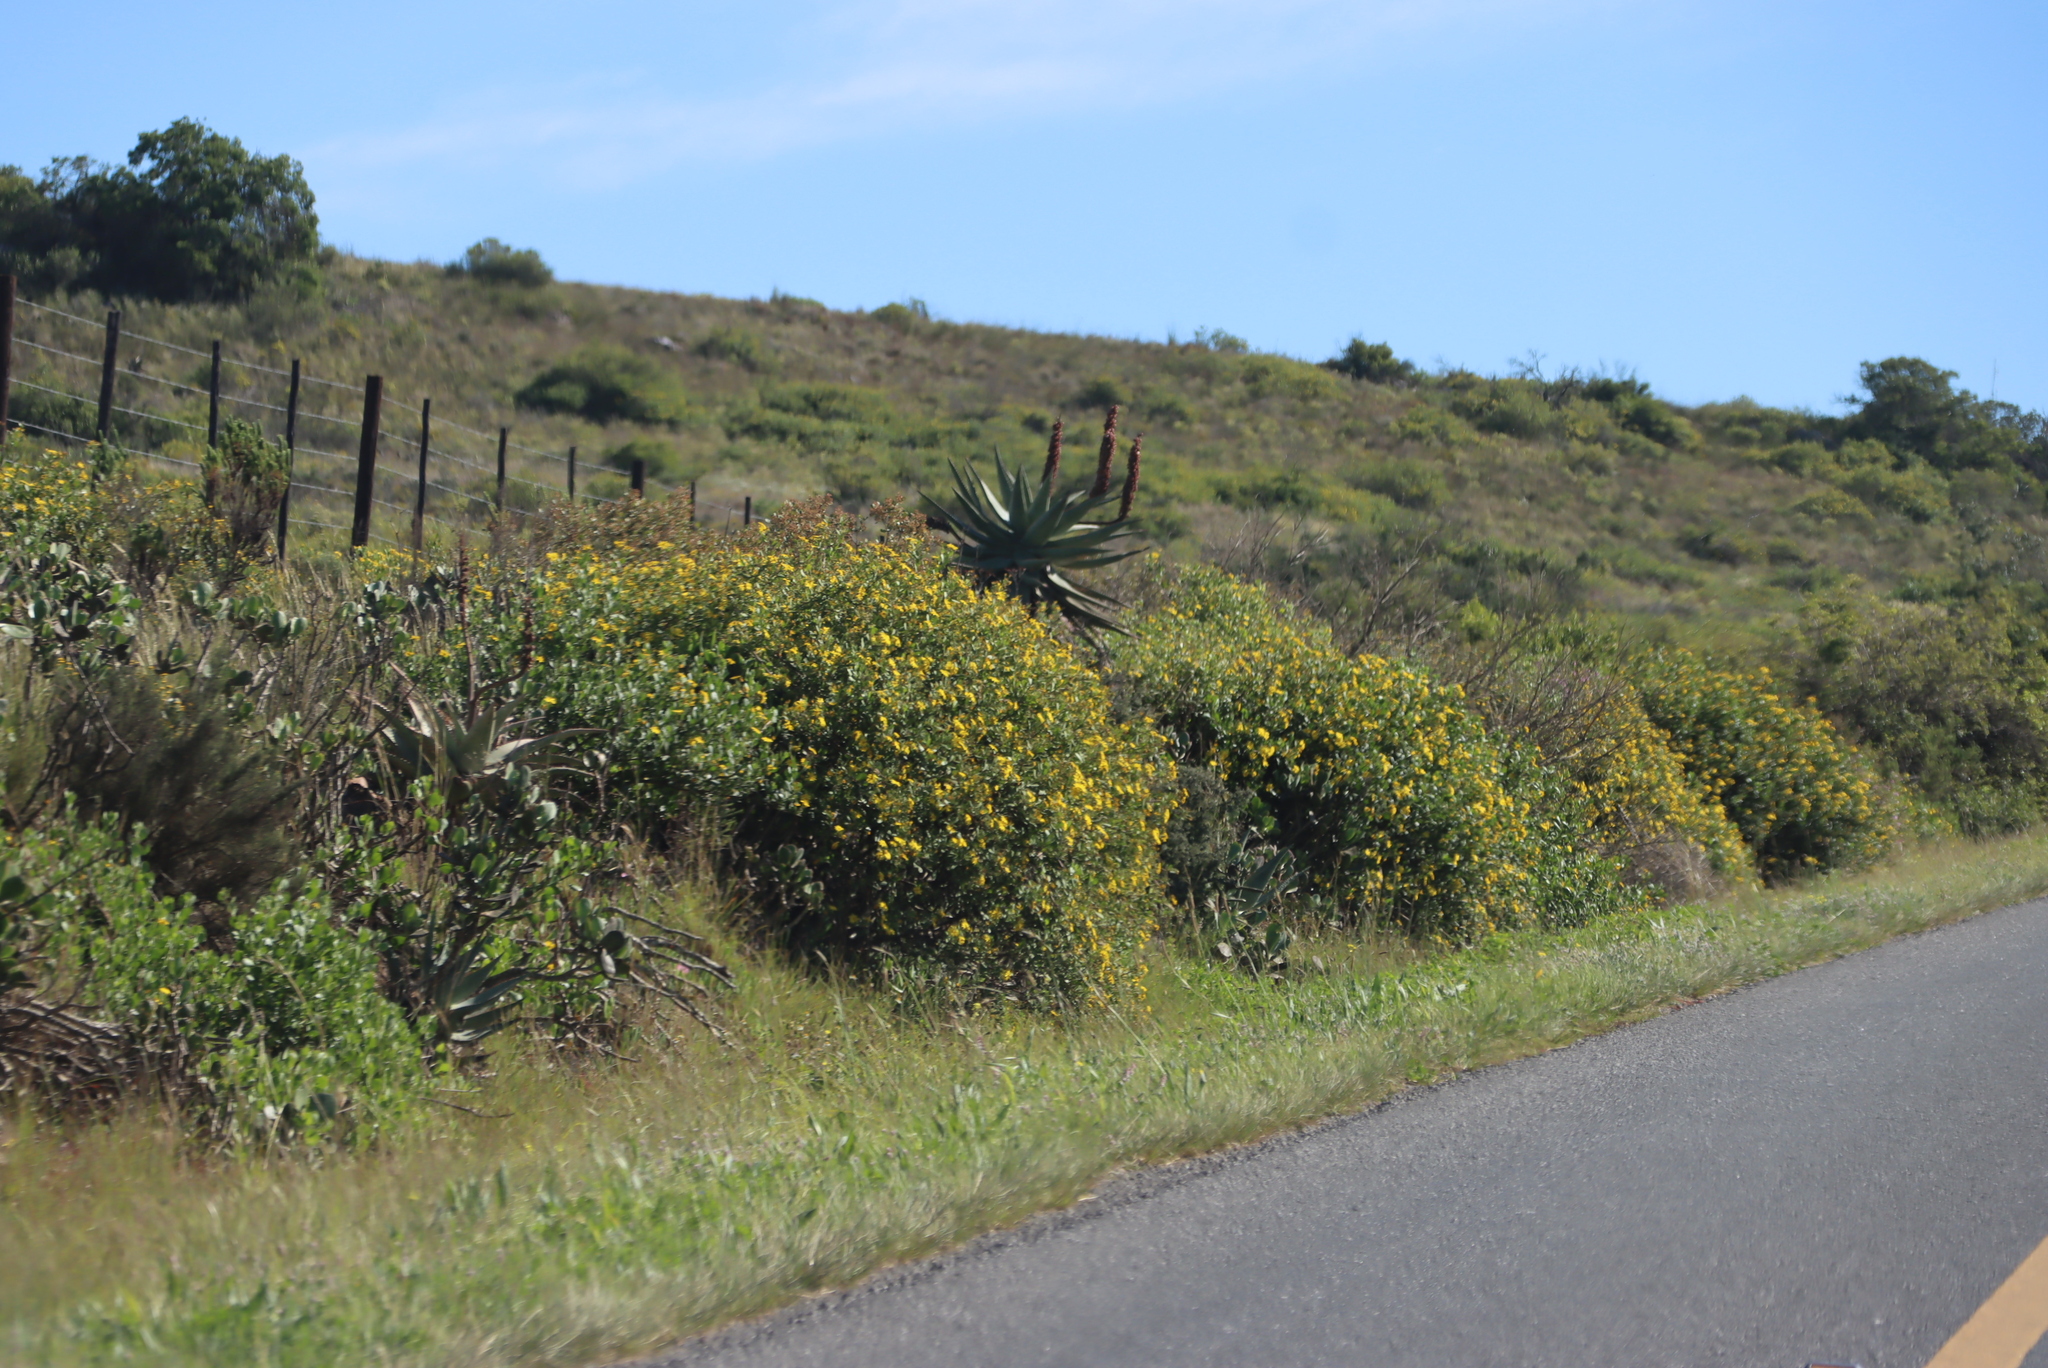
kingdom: Plantae
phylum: Tracheophyta
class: Magnoliopsida
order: Asterales
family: Asteraceae
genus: Osteospermum
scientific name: Osteospermum moniliferum
